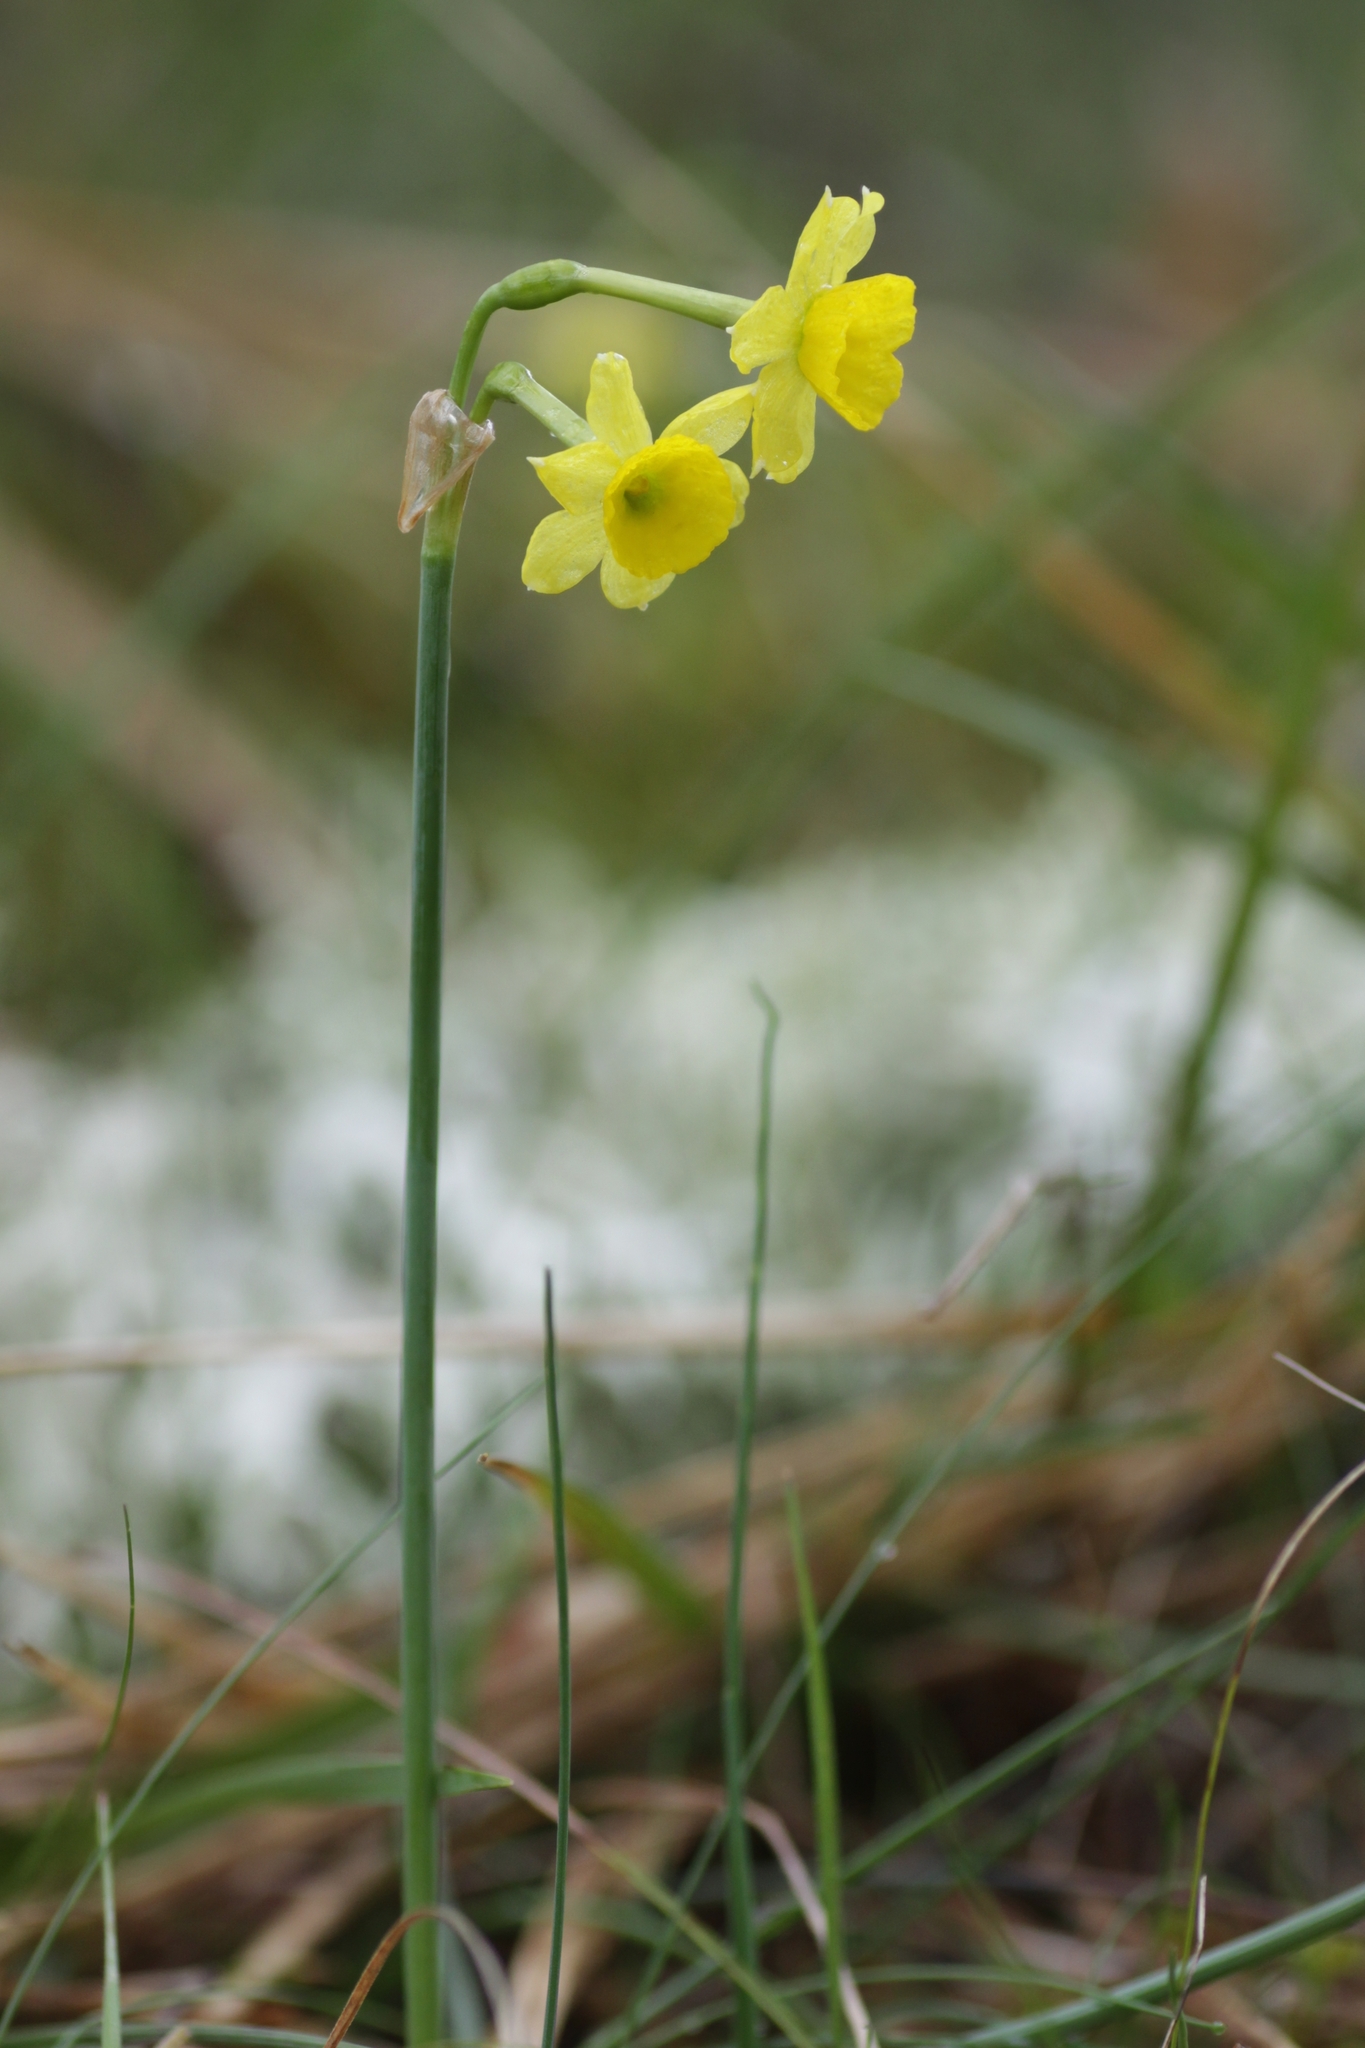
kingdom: Plantae
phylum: Tracheophyta
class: Liliopsida
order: Asparagales
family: Amaryllidaceae
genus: Narcissus
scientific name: Narcissus assoanus
